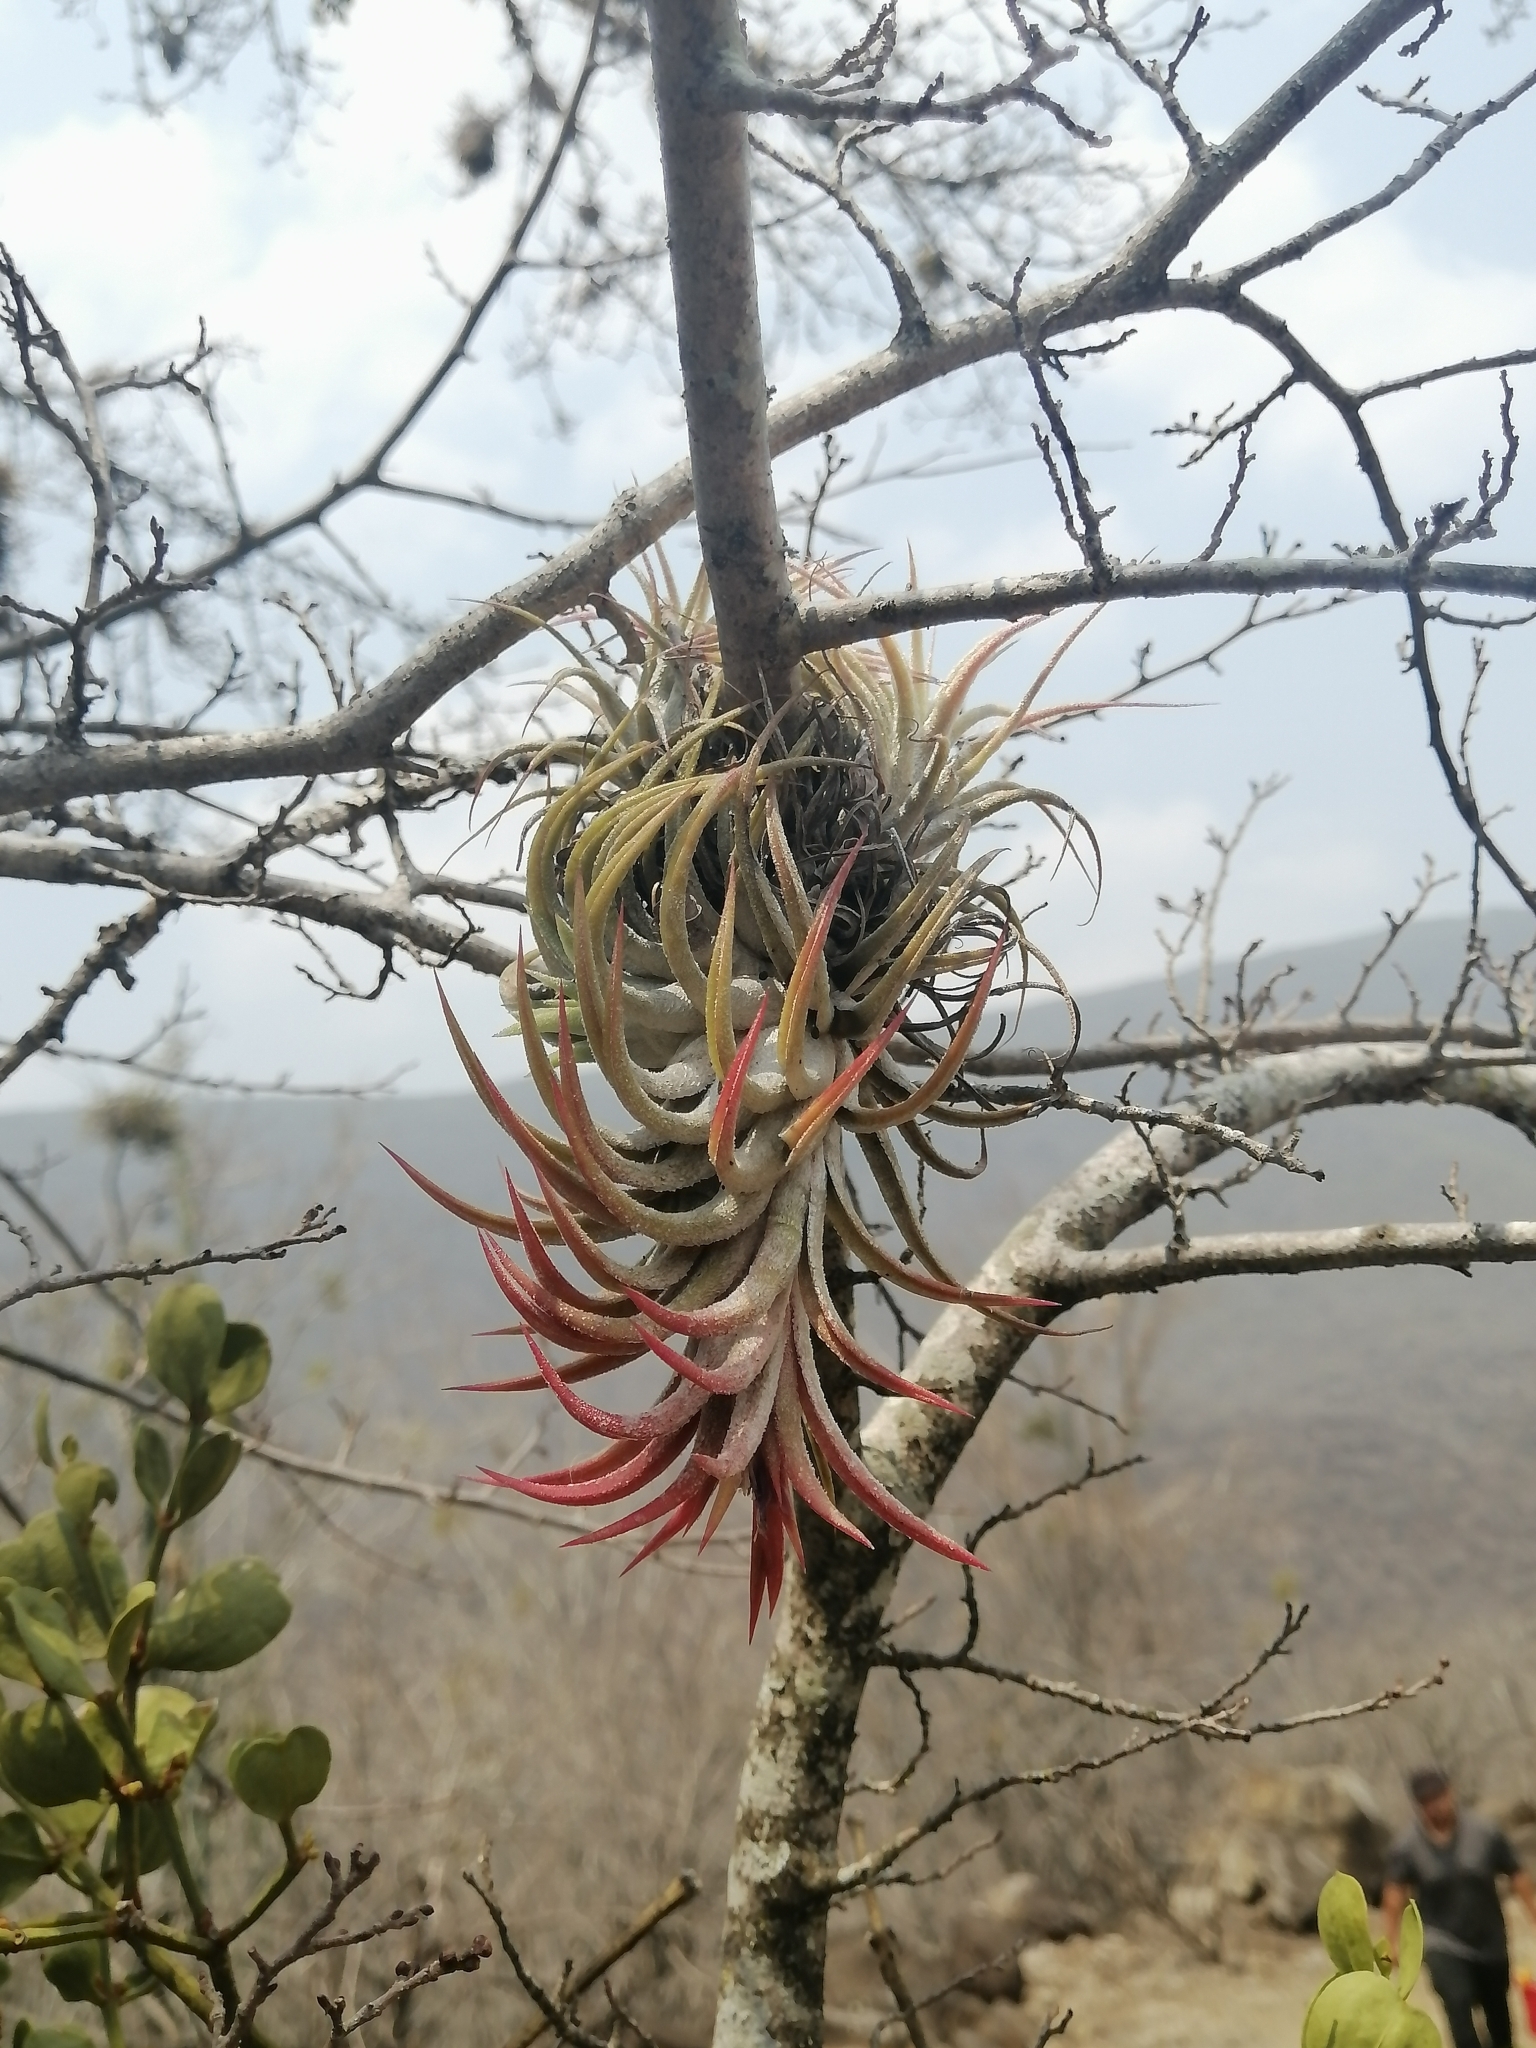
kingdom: Plantae
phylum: Tracheophyta
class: Liliopsida
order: Poales
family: Bromeliaceae
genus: Tillandsia
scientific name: Tillandsia ionantha
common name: Sky plant
